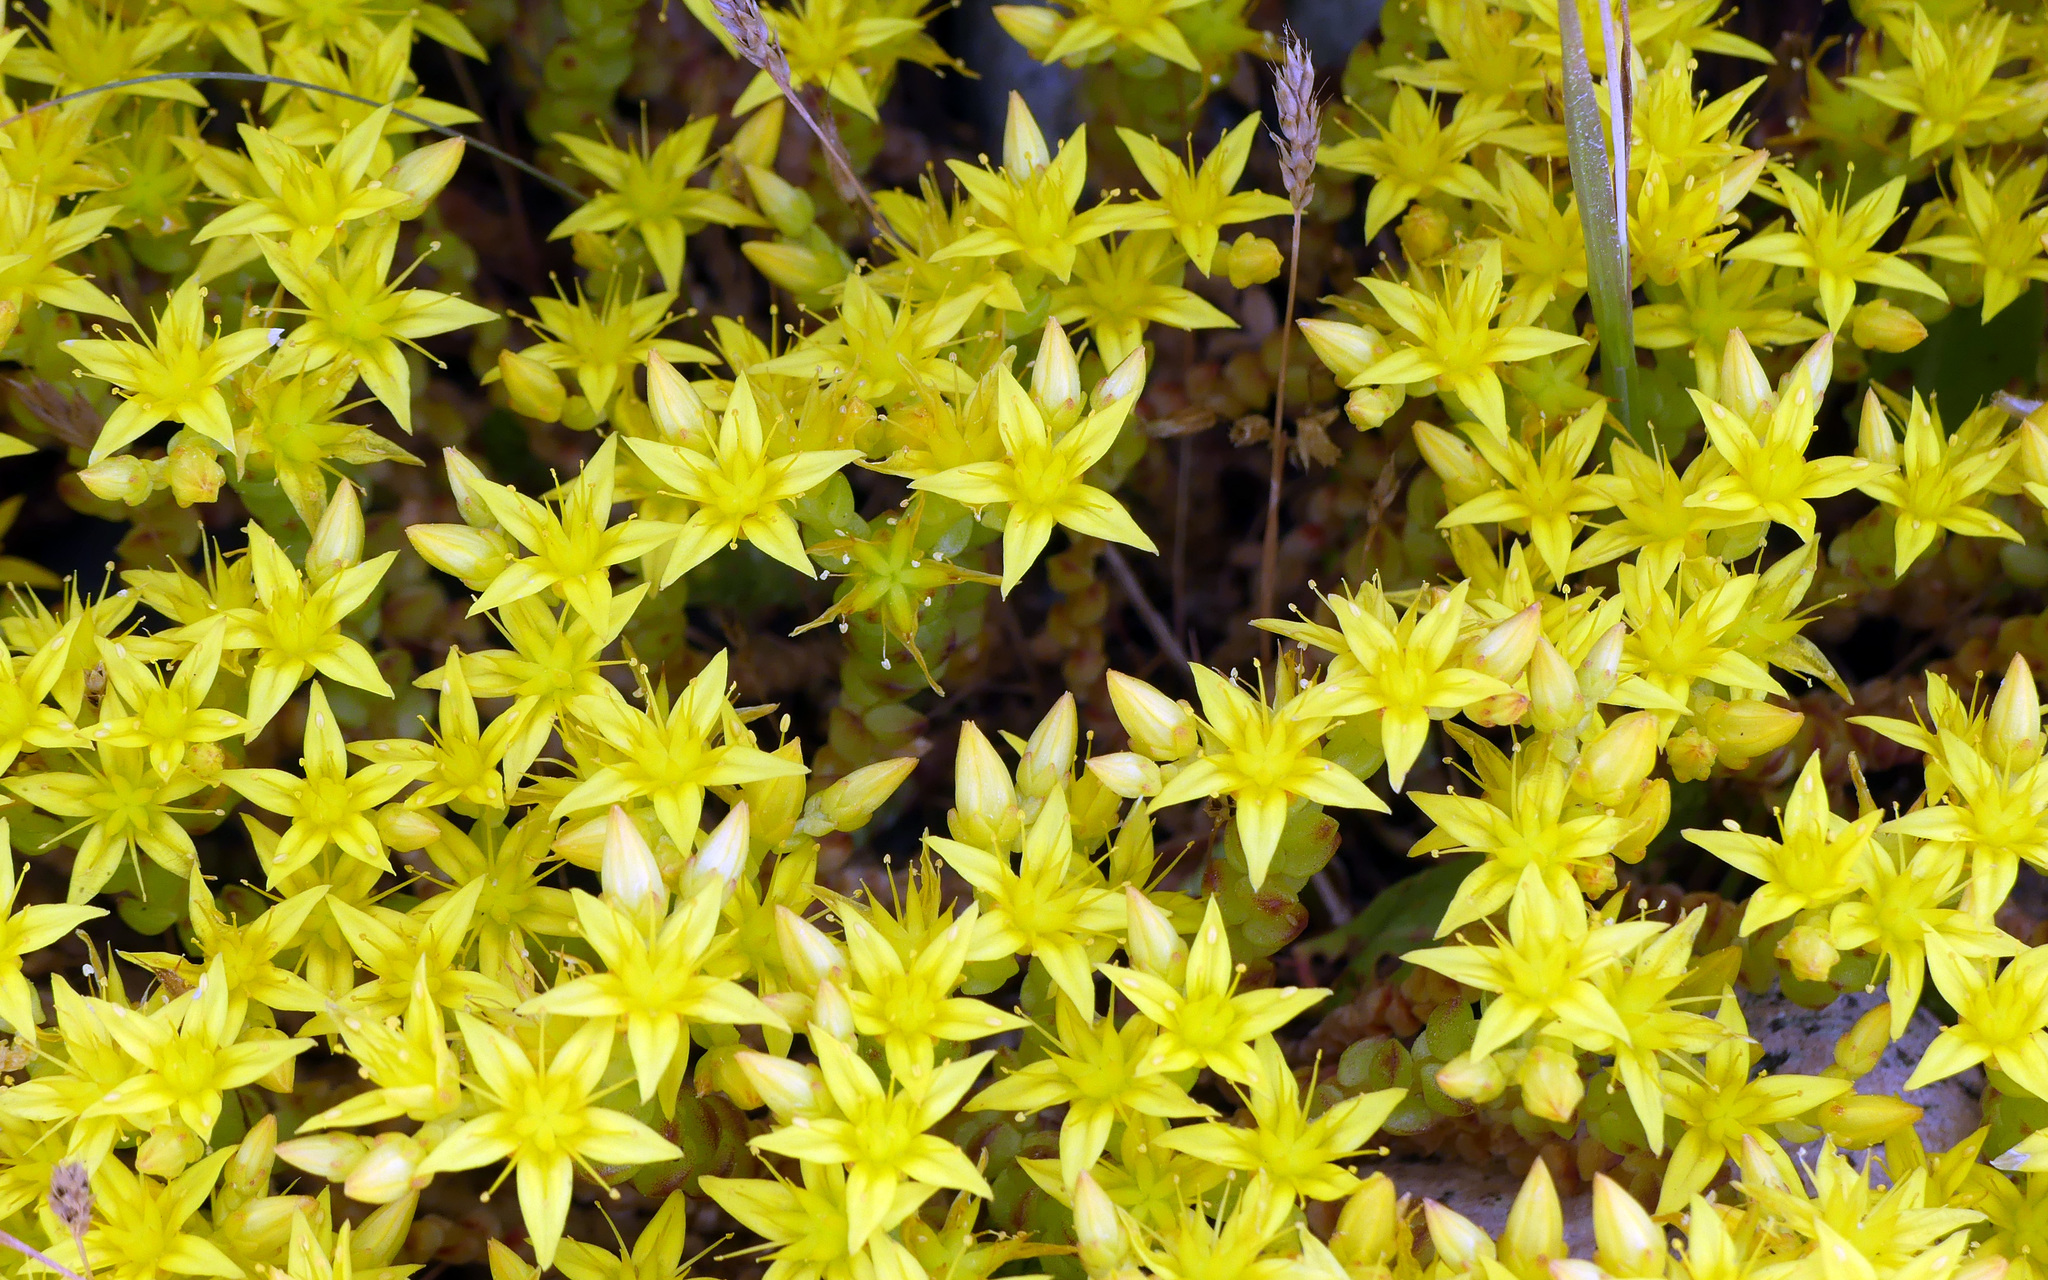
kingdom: Plantae
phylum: Tracheophyta
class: Magnoliopsida
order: Saxifragales
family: Crassulaceae
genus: Sedum
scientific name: Sedum acre
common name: Biting stonecrop
